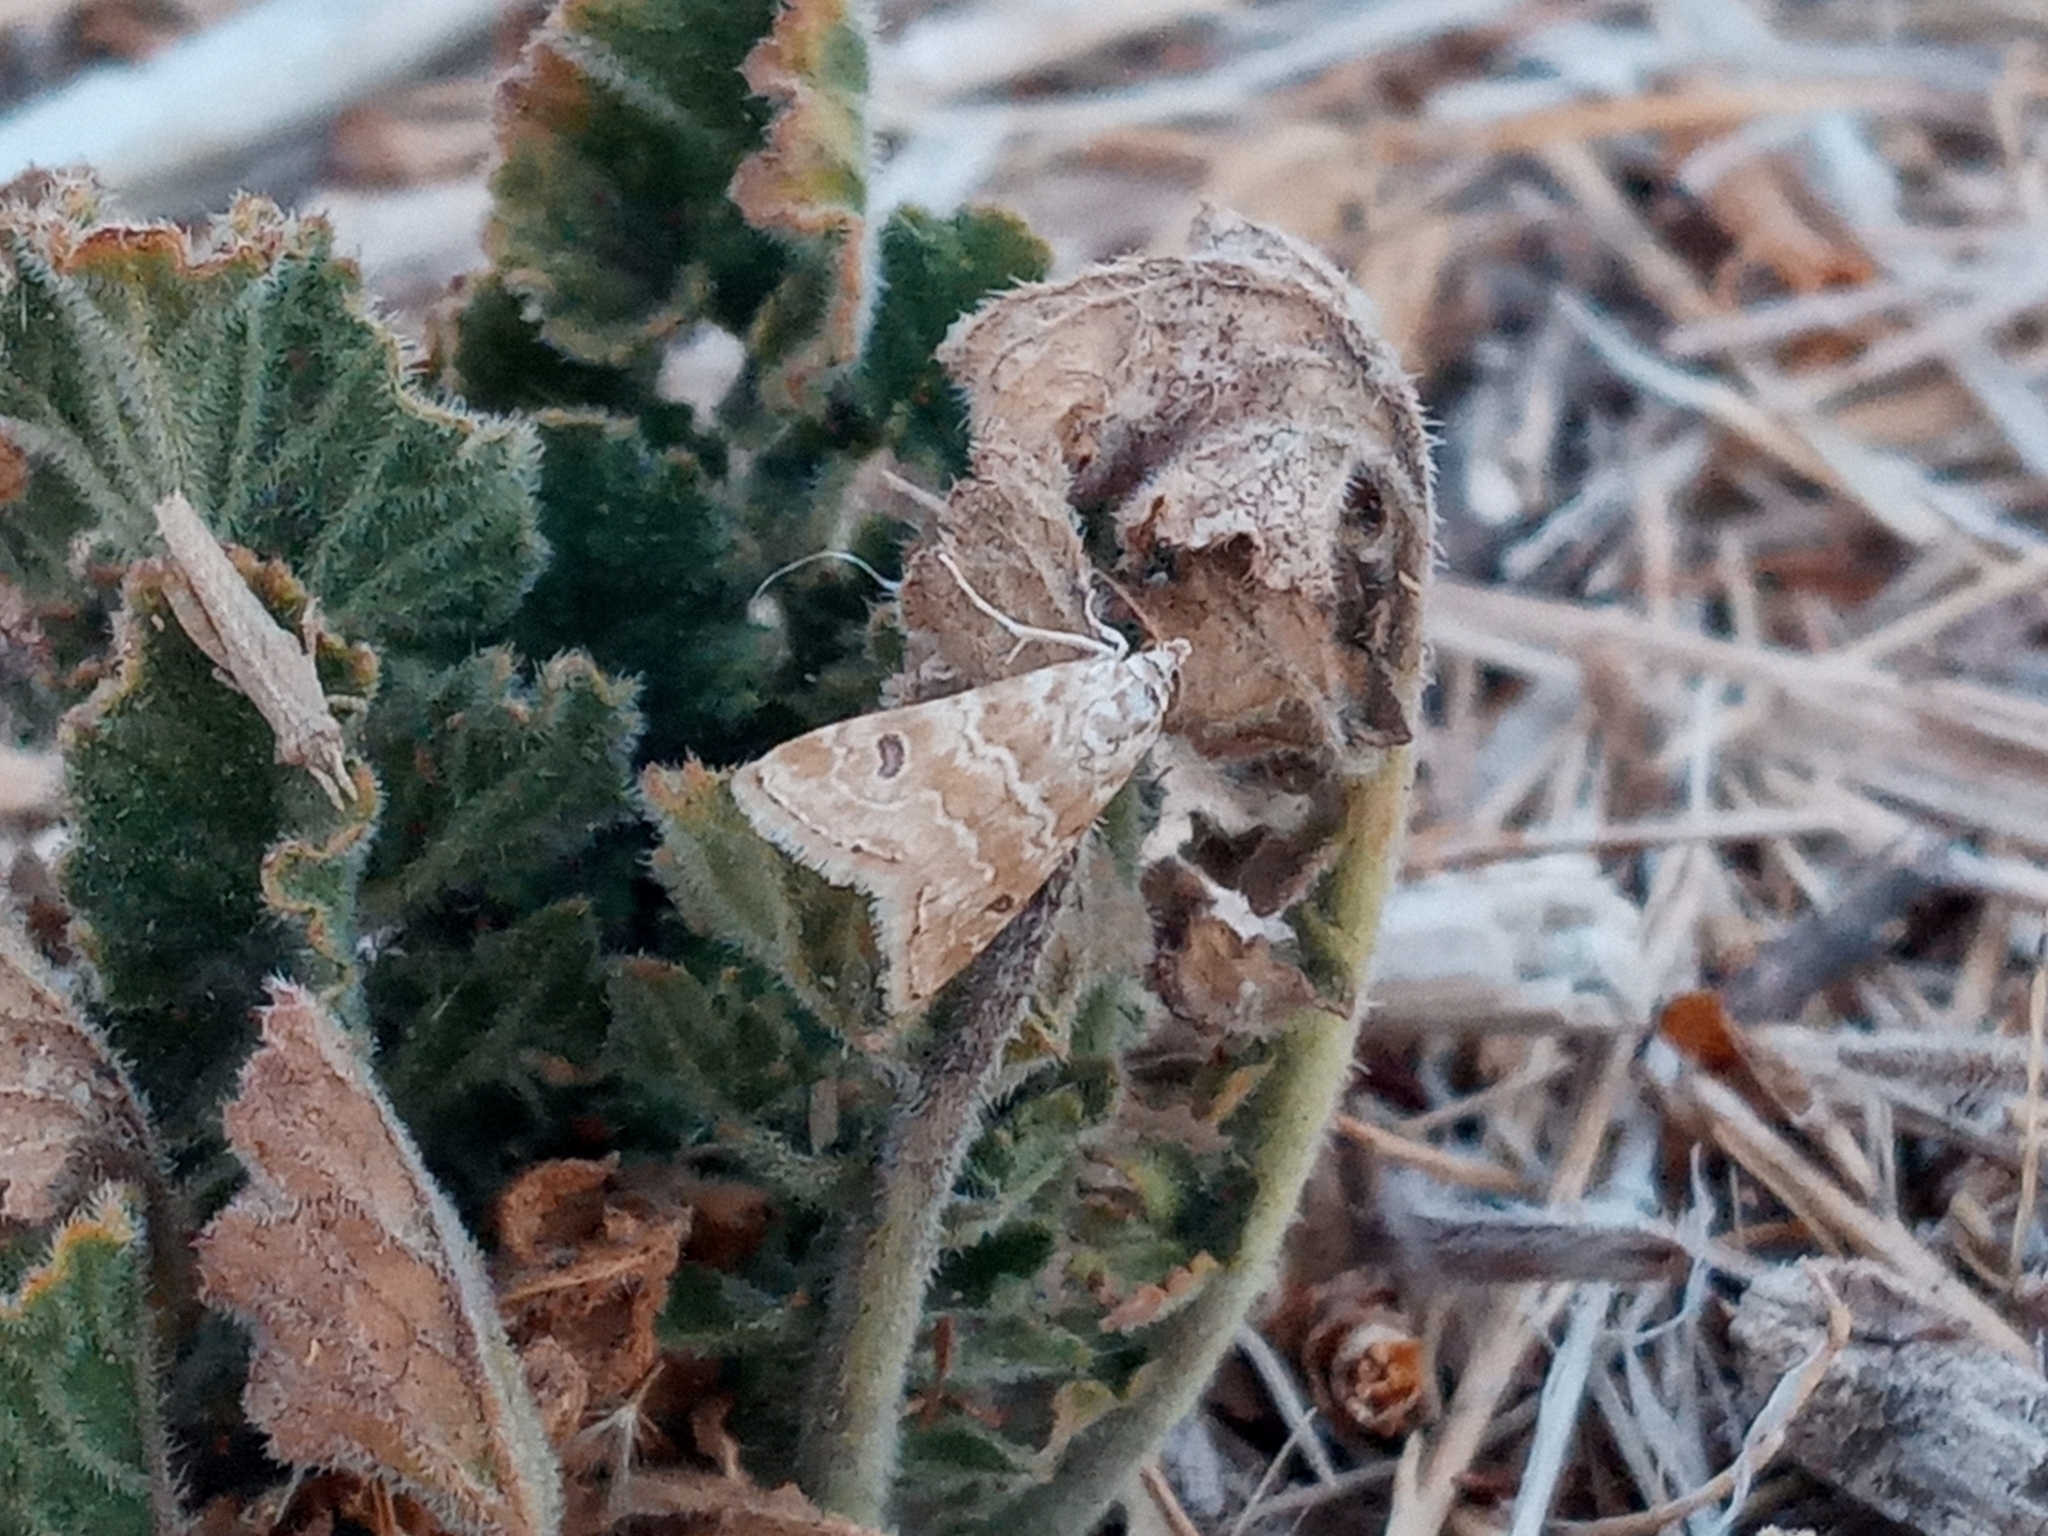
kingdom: Animalia
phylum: Arthropoda
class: Insecta
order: Lepidoptera
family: Crambidae
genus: Hellula
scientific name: Hellula rogatalis
